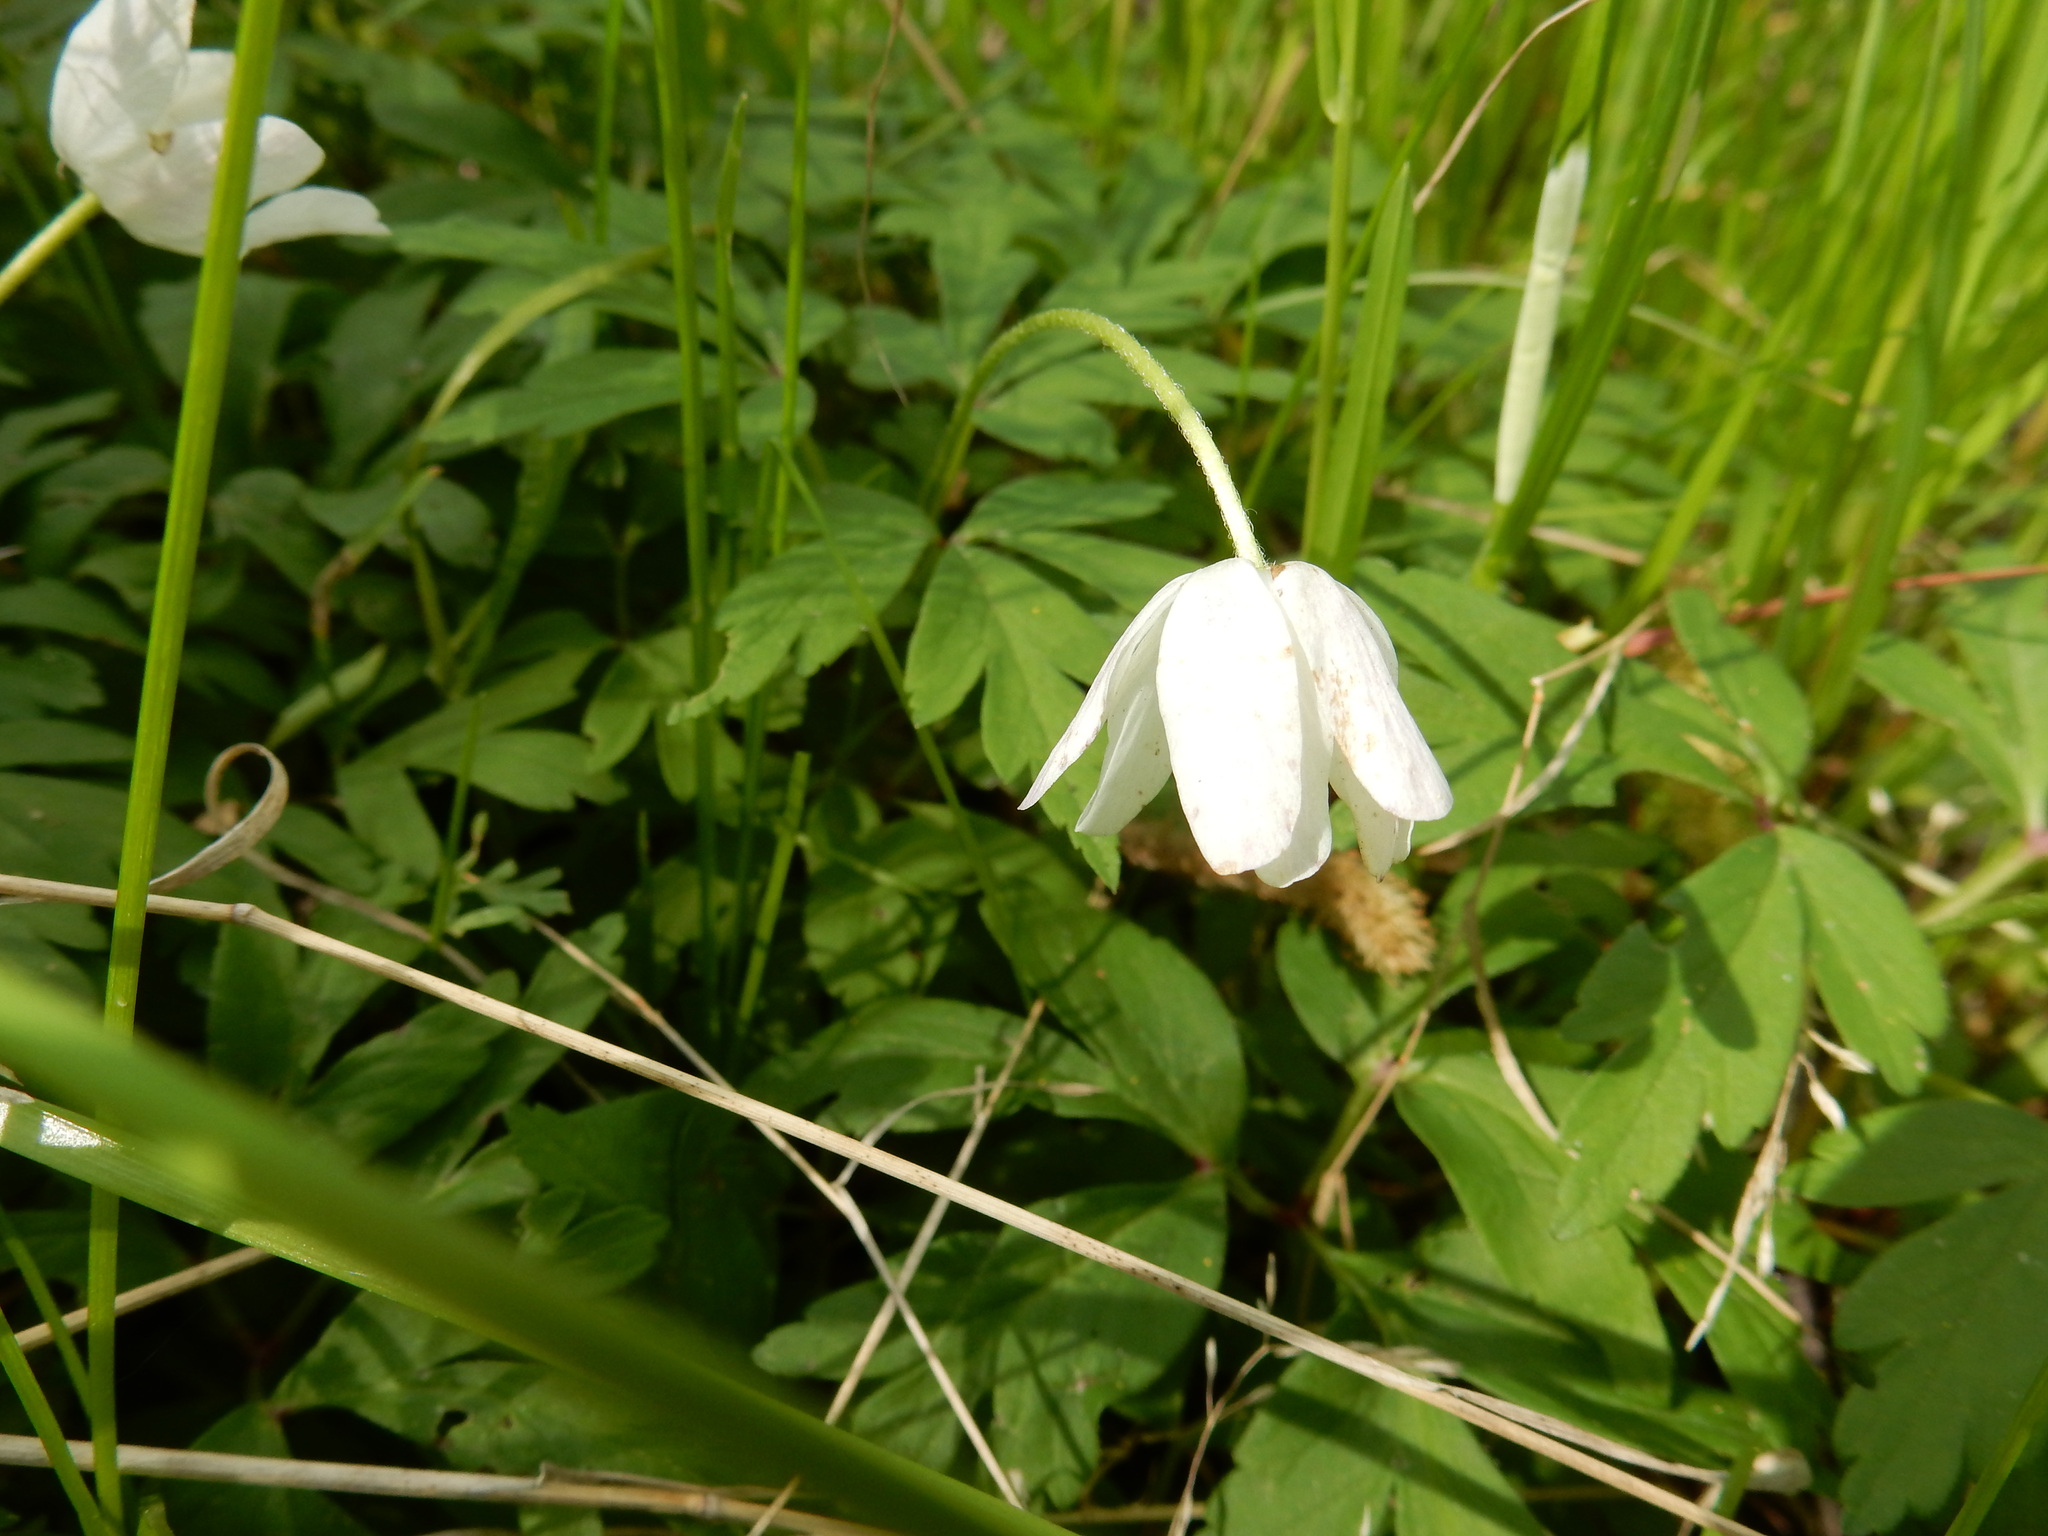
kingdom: Plantae
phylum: Tracheophyta
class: Magnoliopsida
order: Ranunculales
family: Ranunculaceae
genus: Anemone
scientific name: Anemone nemorosa
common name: Wood anemone
